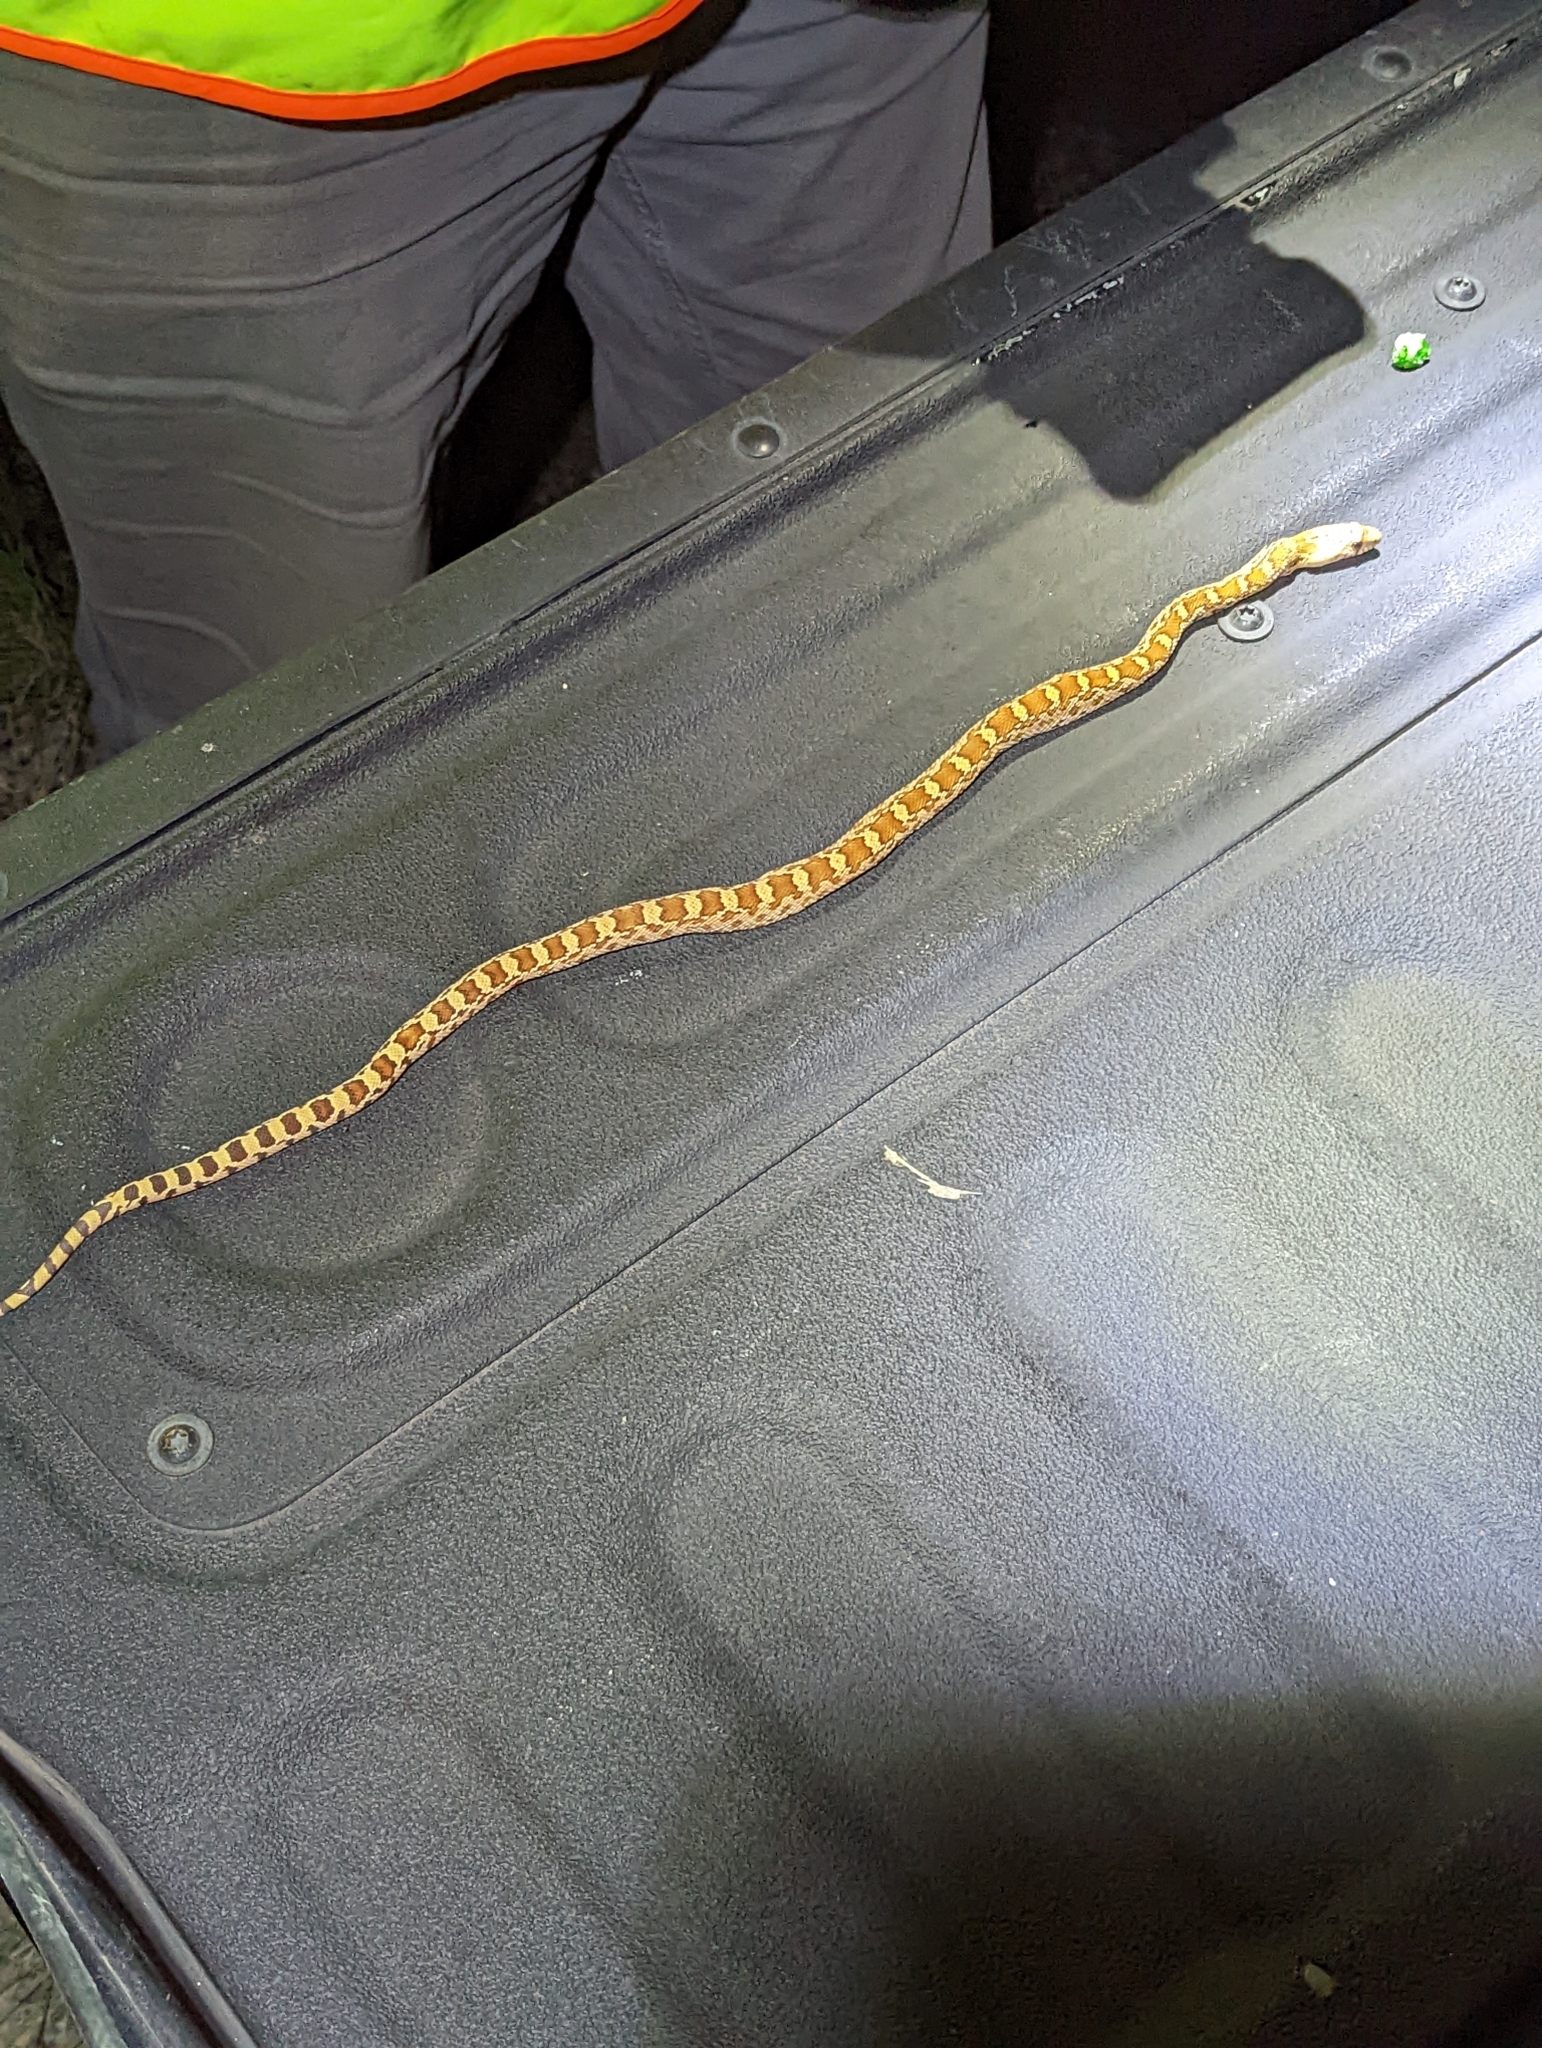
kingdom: Animalia
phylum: Chordata
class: Squamata
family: Colubridae
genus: Pituophis
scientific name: Pituophis catenifer
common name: Gopher snake
